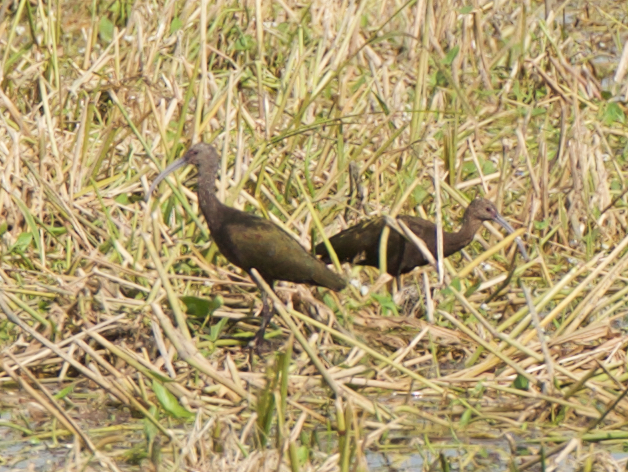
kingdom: Animalia
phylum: Chordata
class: Aves
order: Pelecaniformes
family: Threskiornithidae
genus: Plegadis
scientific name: Plegadis chihi
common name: White-faced ibis
